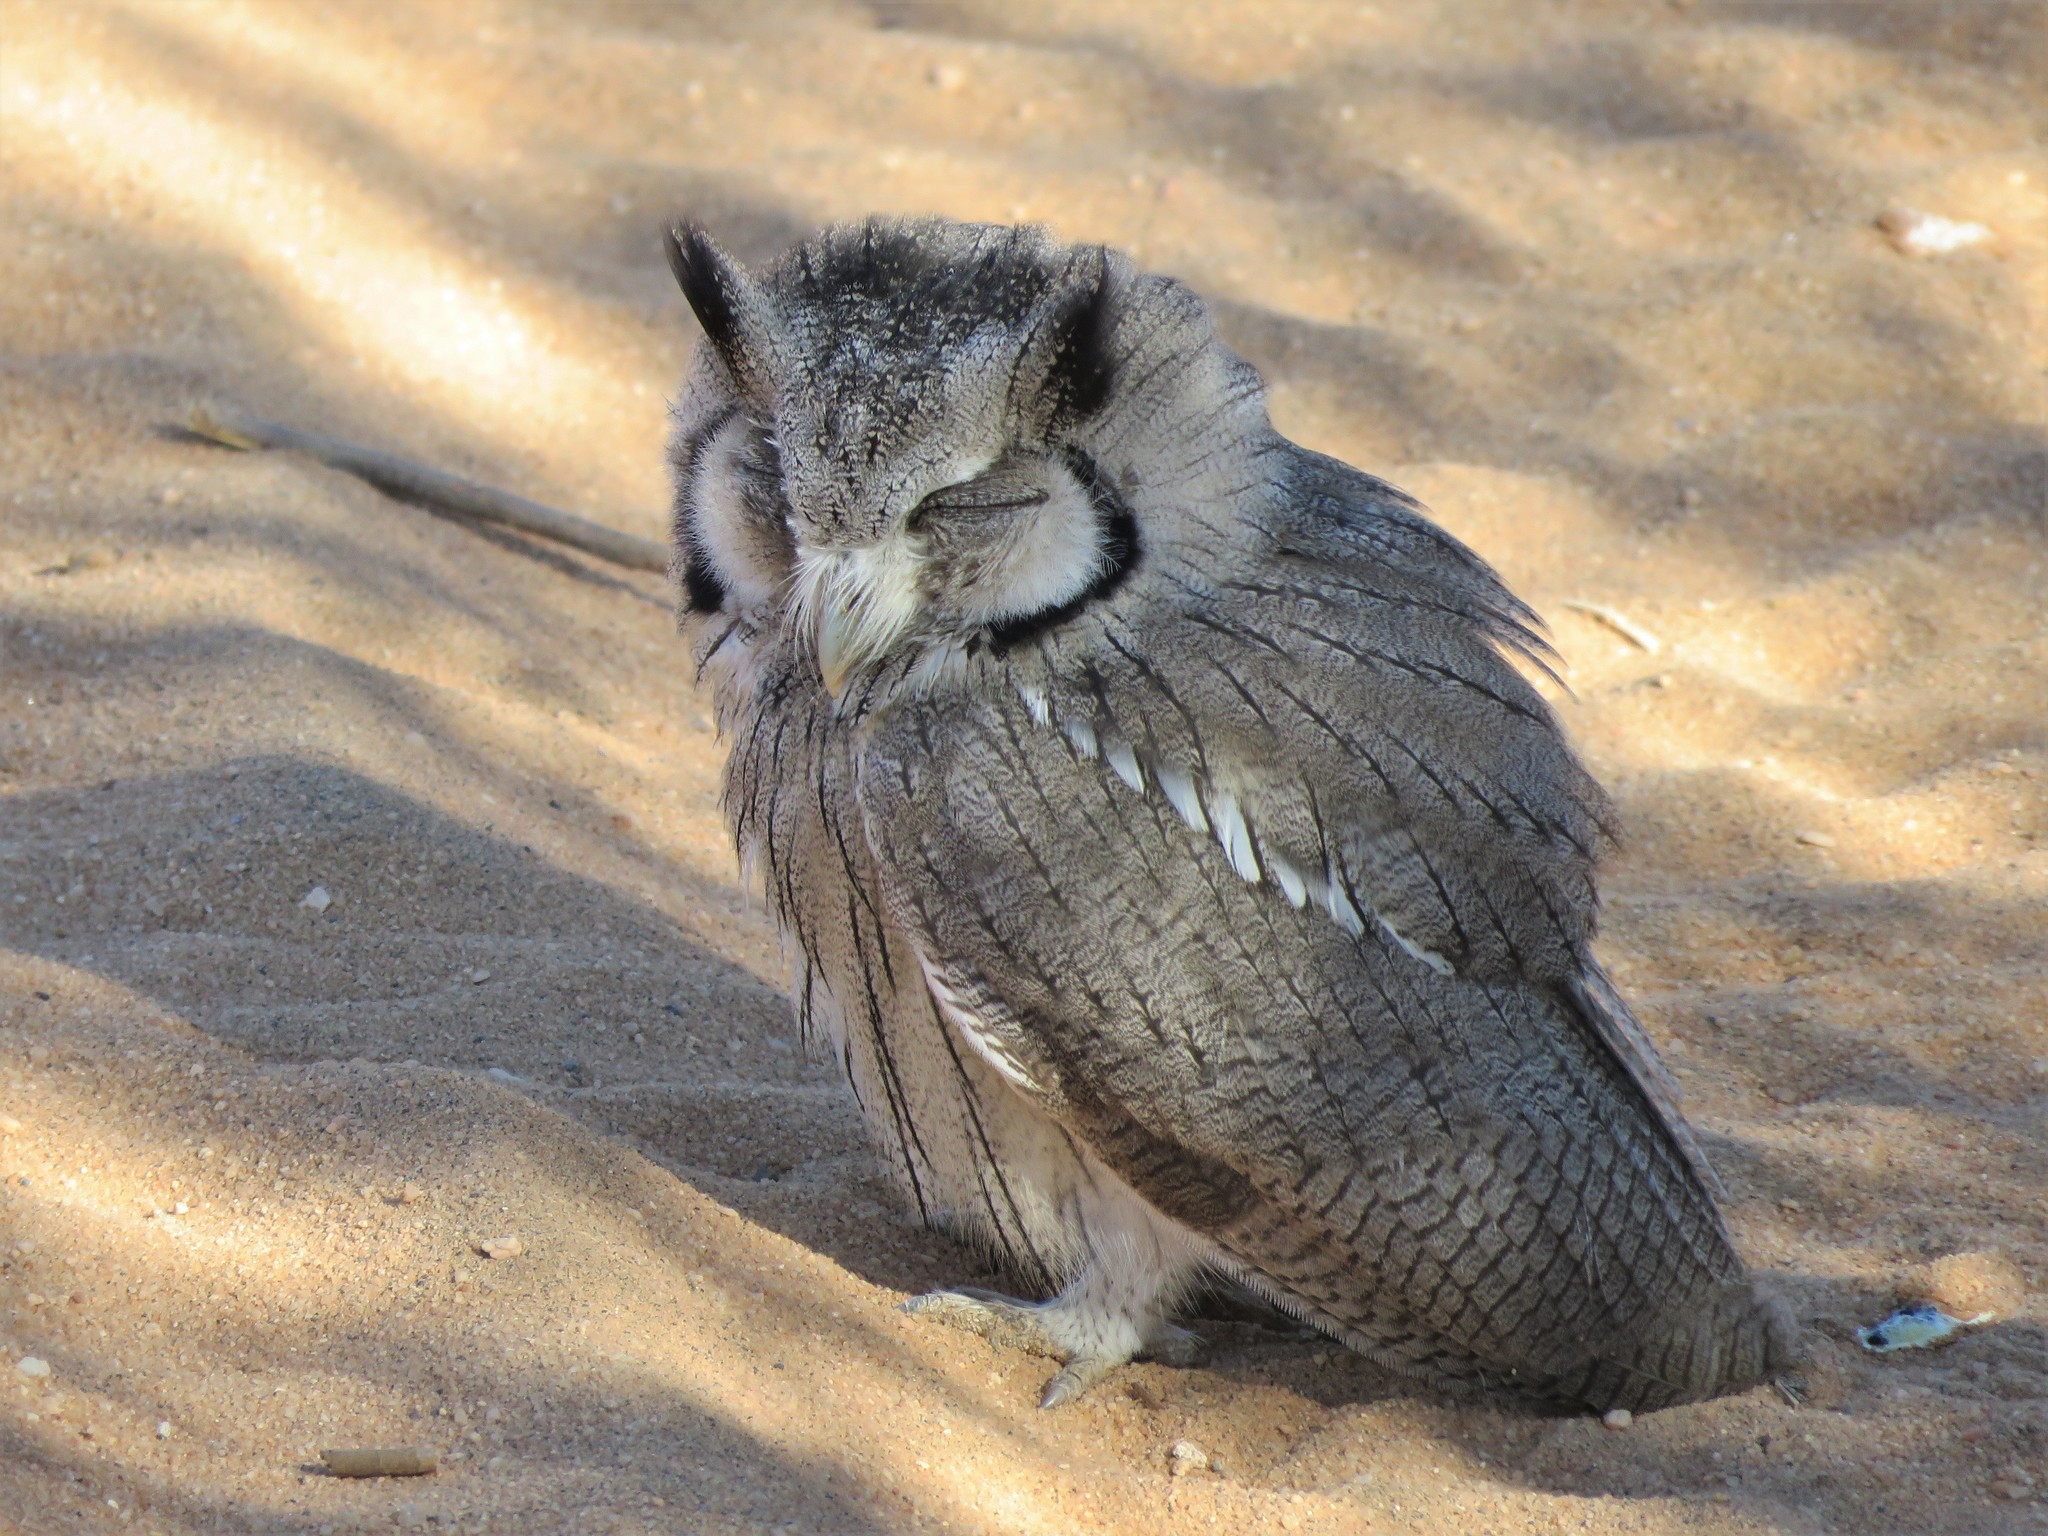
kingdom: Animalia
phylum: Chordata
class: Aves
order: Strigiformes
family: Strigidae
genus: Ptilopsis
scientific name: Ptilopsis leucotis
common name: Northern white-faced owl
